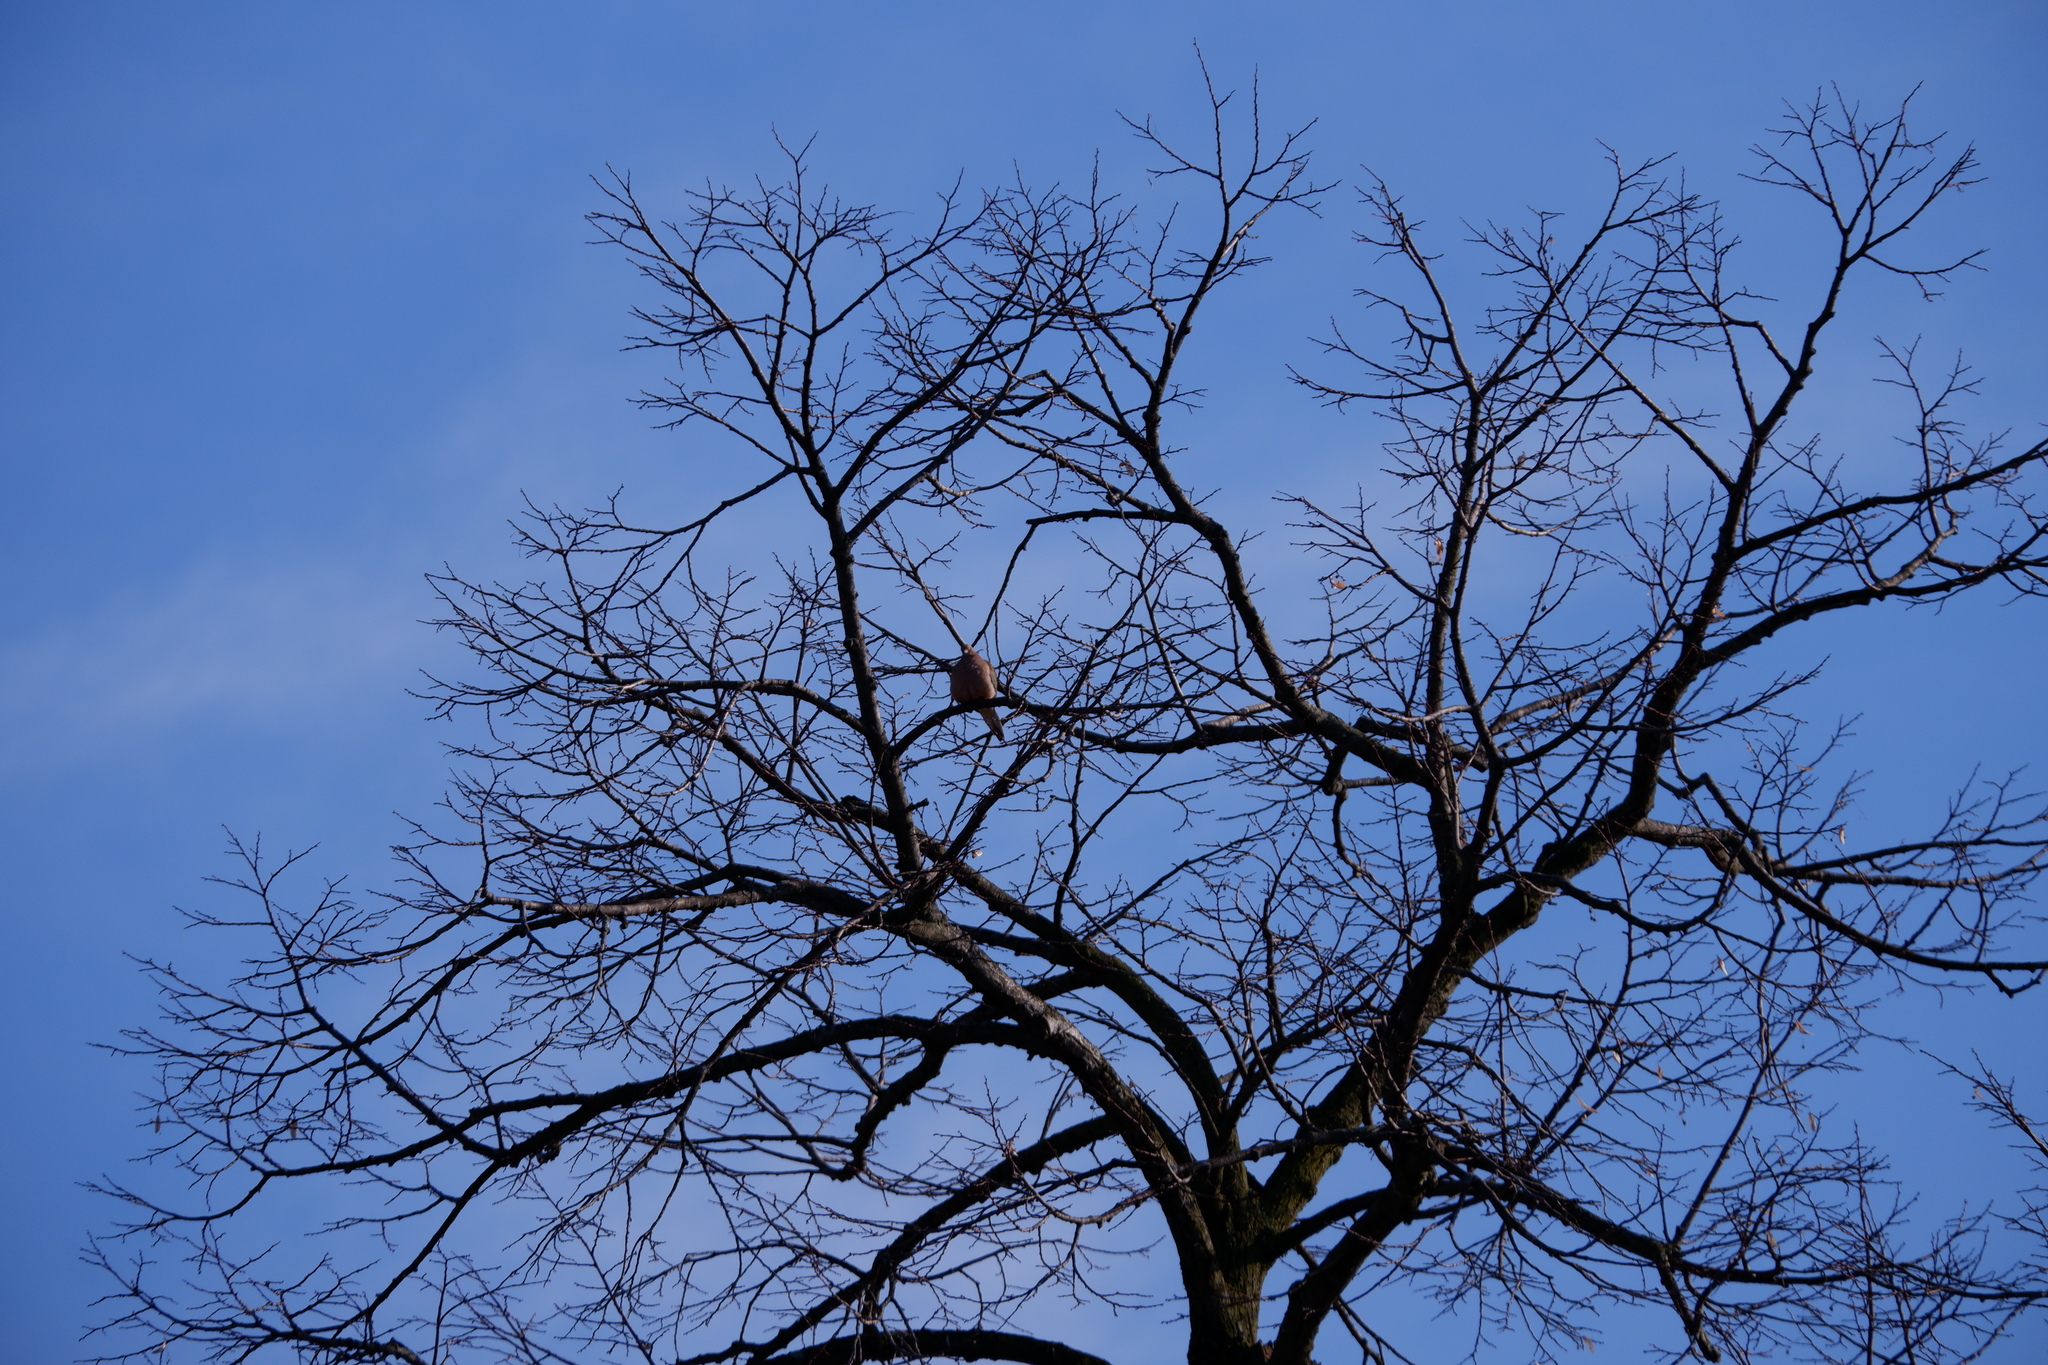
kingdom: Animalia
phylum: Chordata
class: Aves
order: Columbiformes
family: Columbidae
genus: Zenaida
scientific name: Zenaida macroura
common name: Mourning dove
